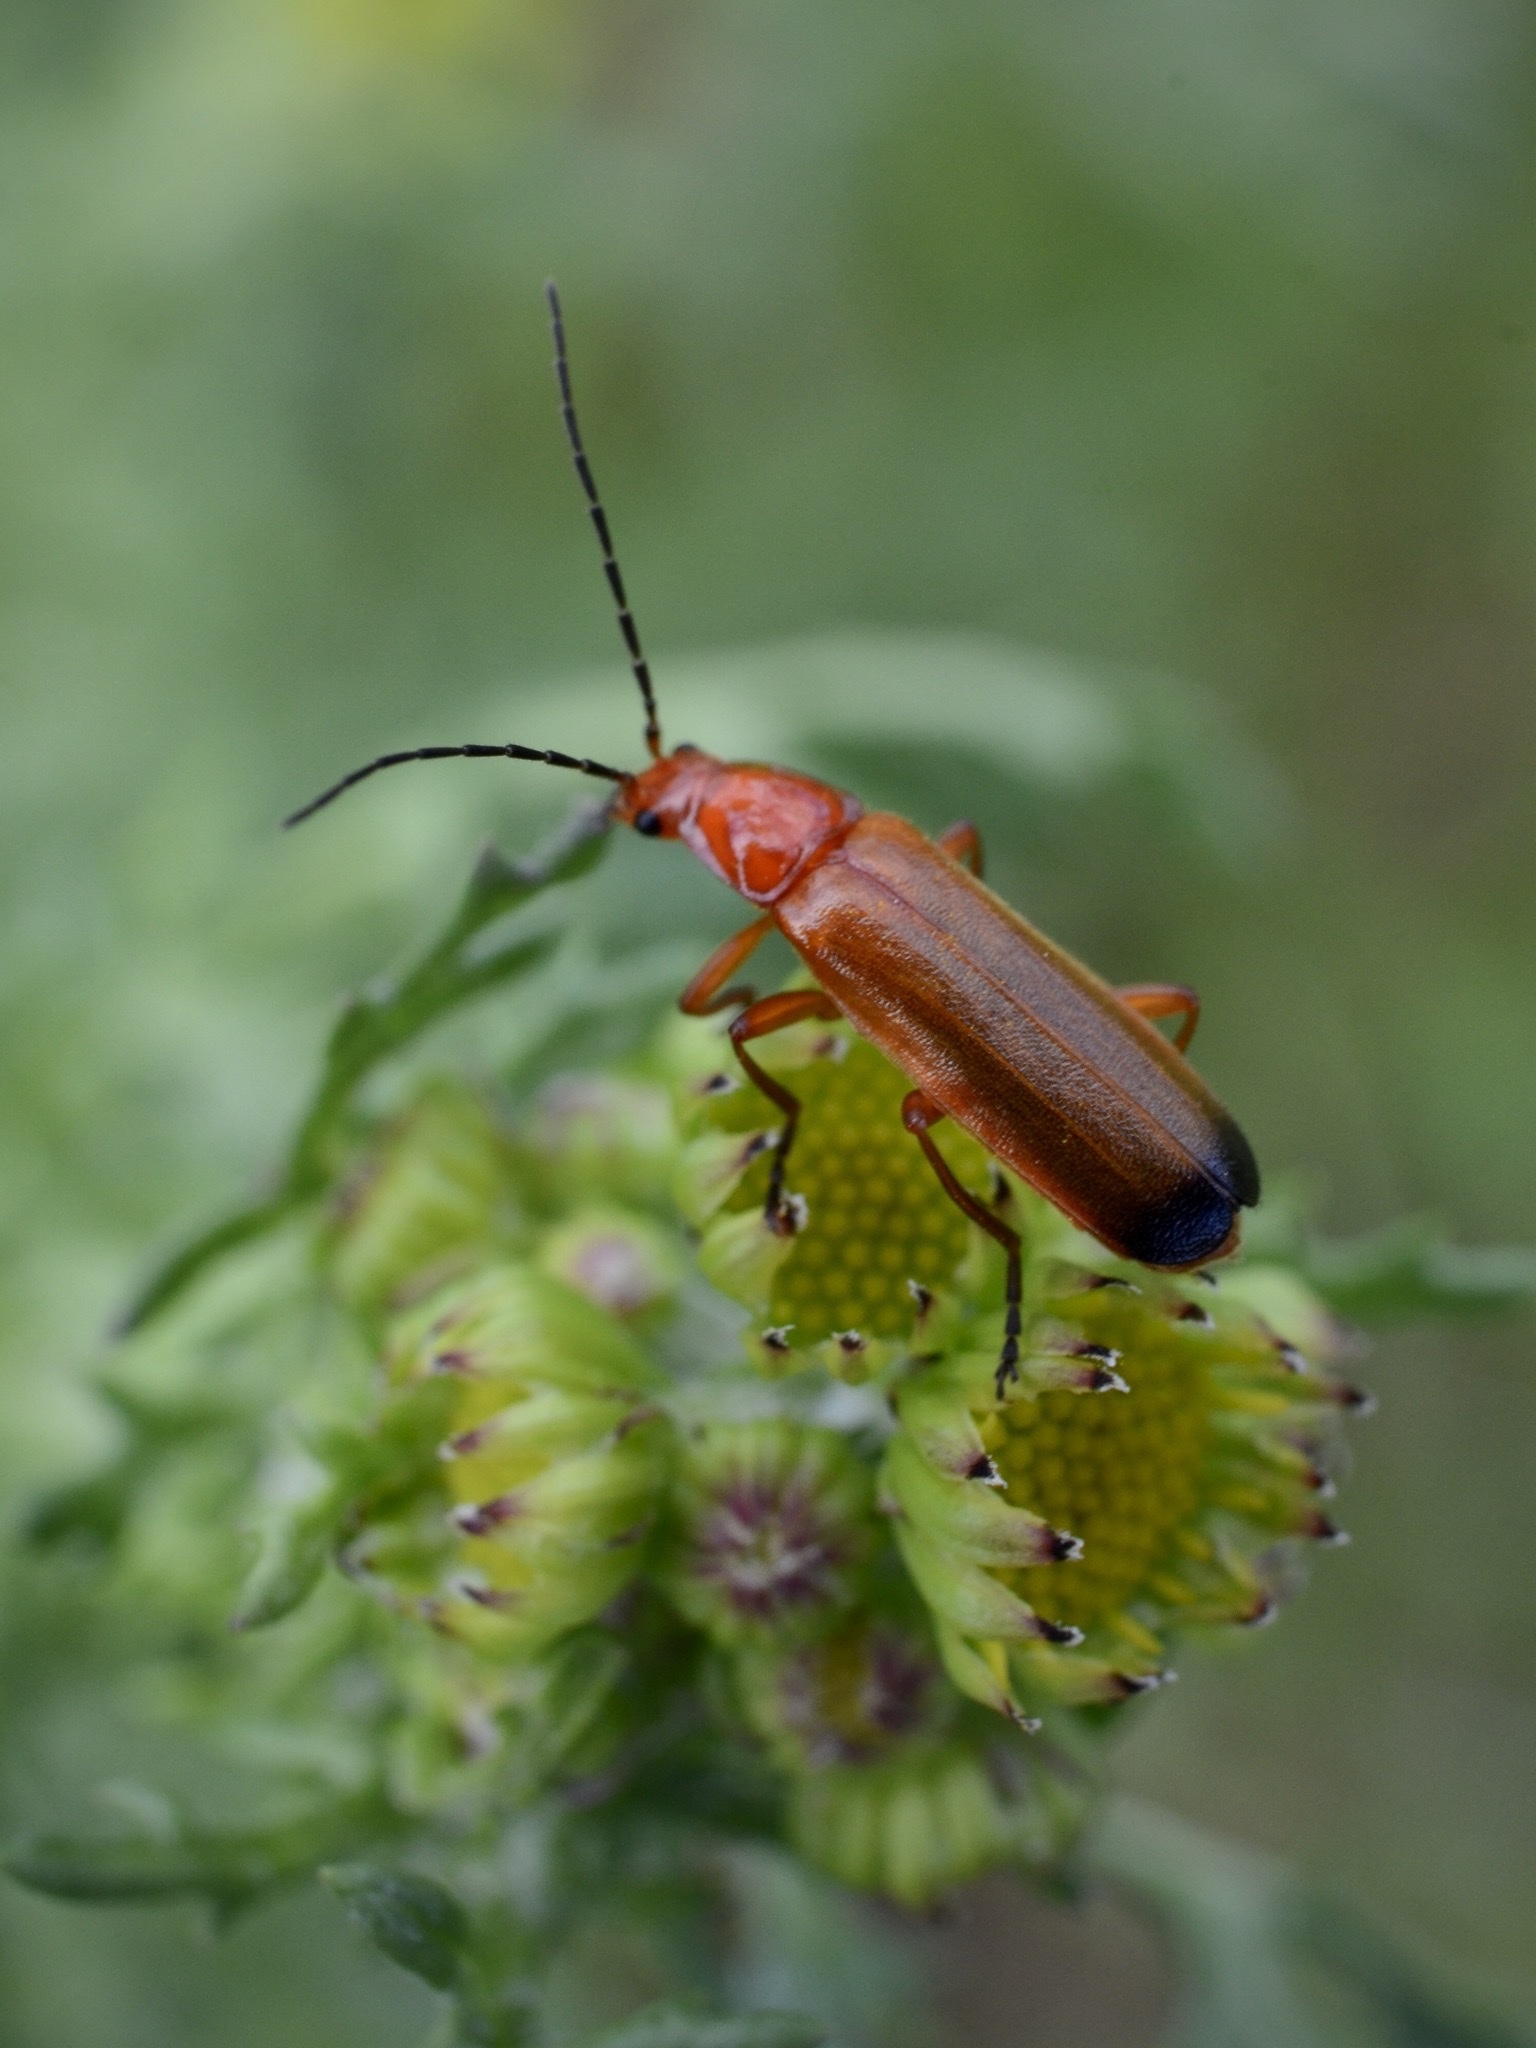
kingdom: Animalia
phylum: Arthropoda
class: Insecta
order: Coleoptera
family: Cantharidae
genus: Rhagonycha
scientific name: Rhagonycha fulva
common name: Common red soldier beetle
